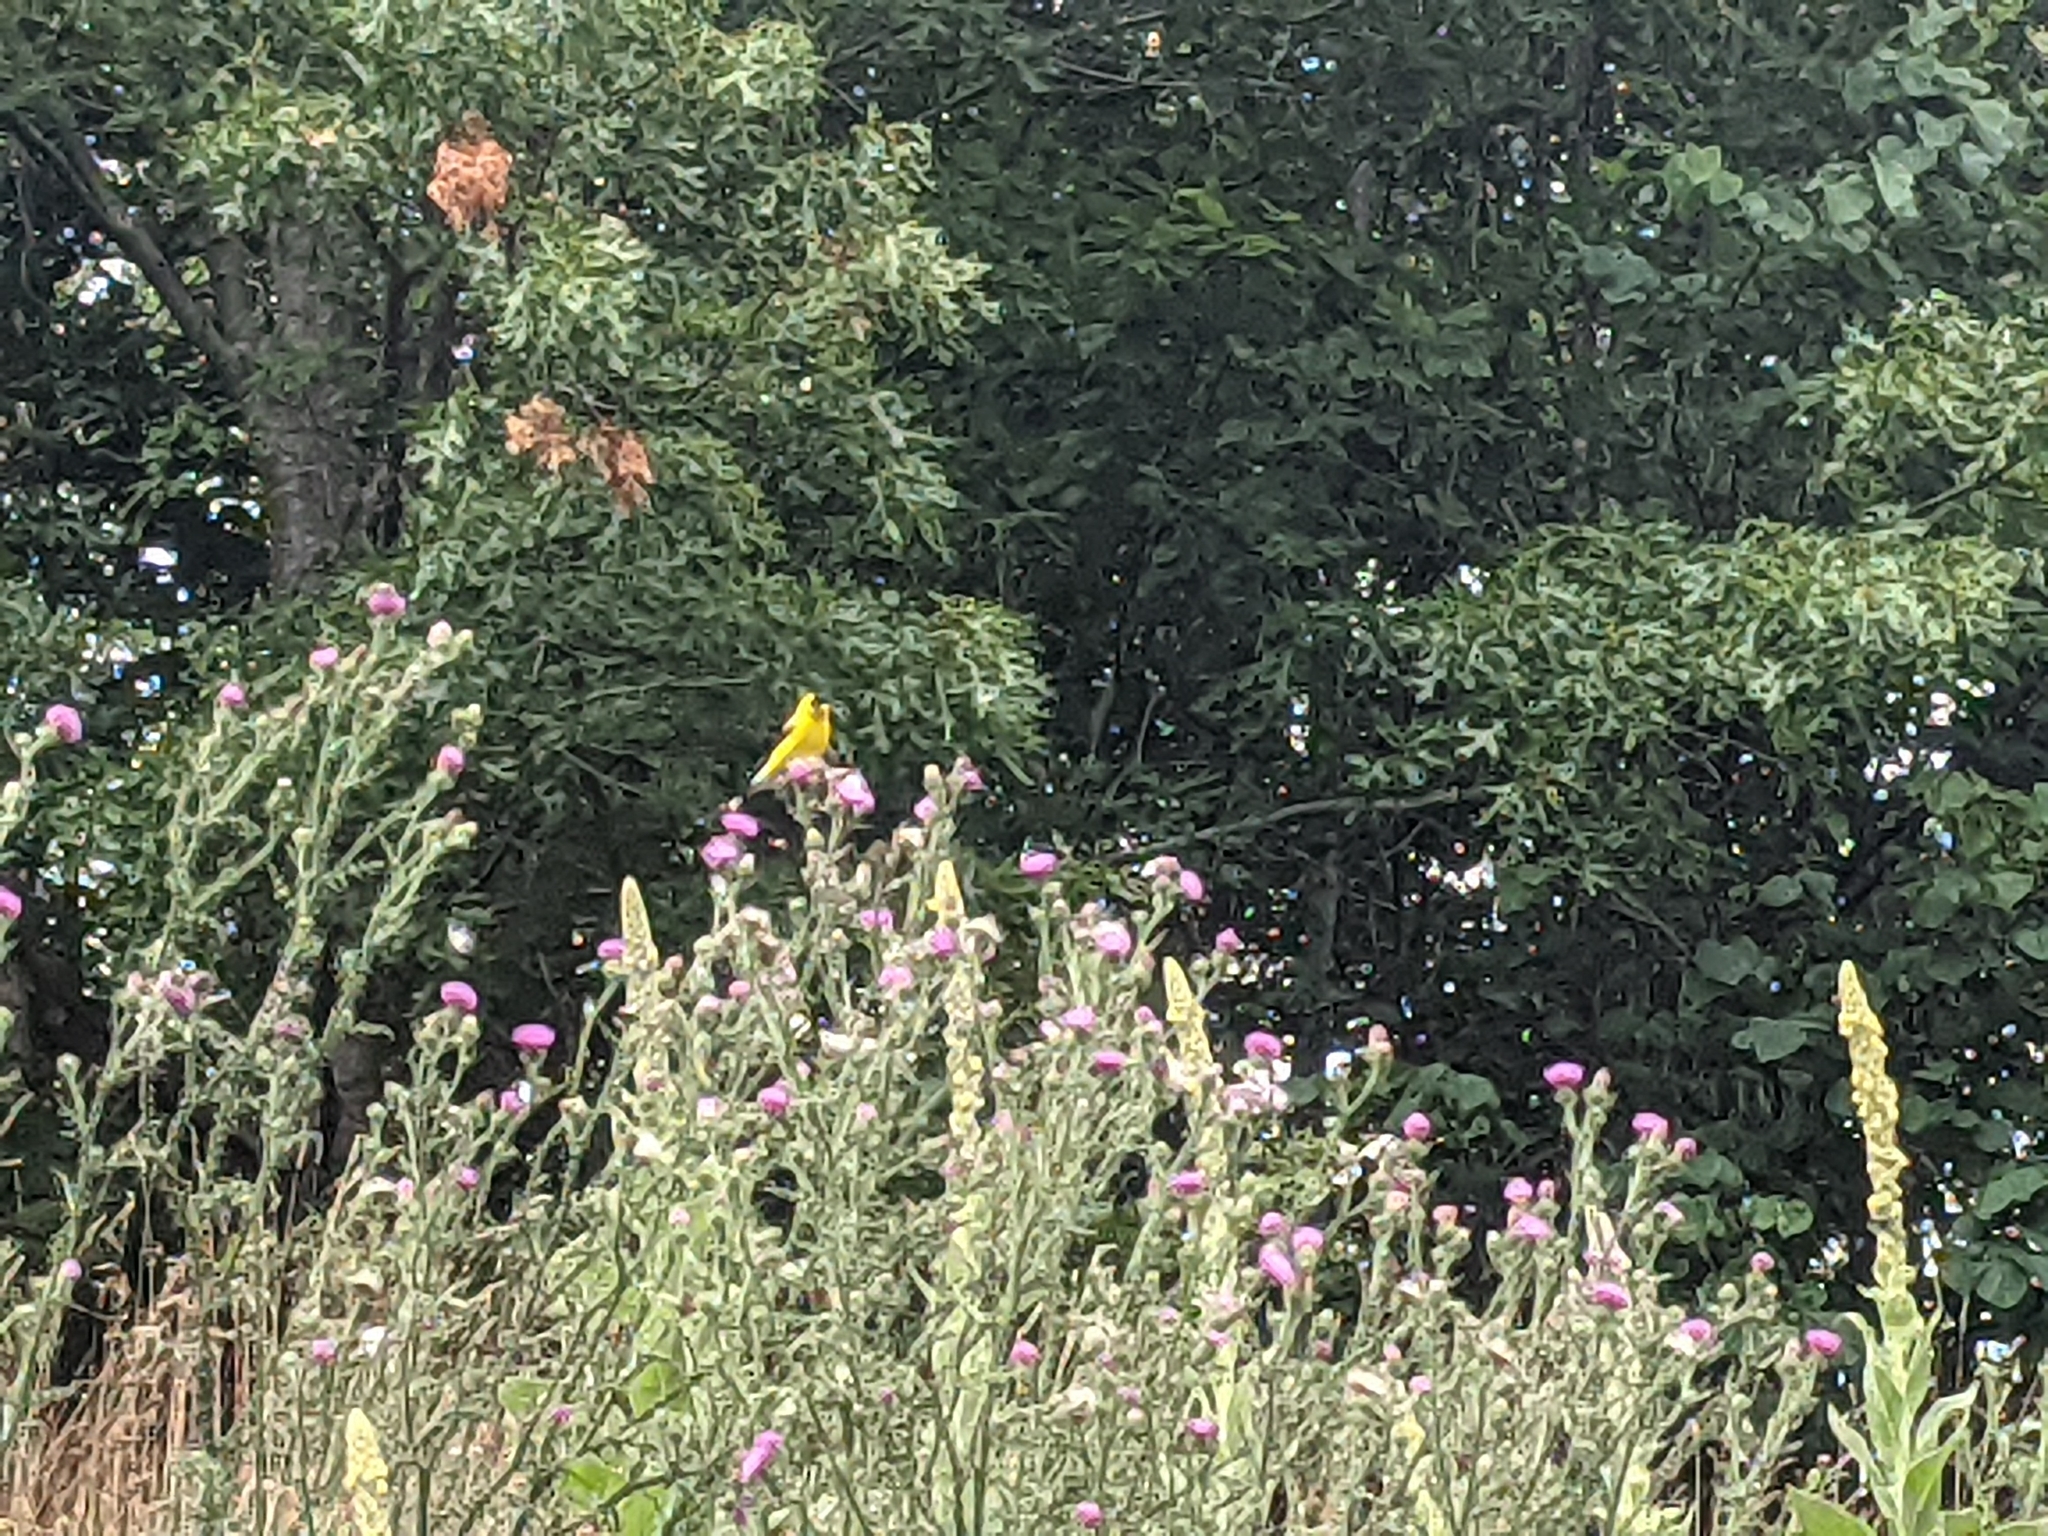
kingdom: Animalia
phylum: Chordata
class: Aves
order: Passeriformes
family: Fringillidae
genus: Spinus
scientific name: Spinus tristis
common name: American goldfinch
